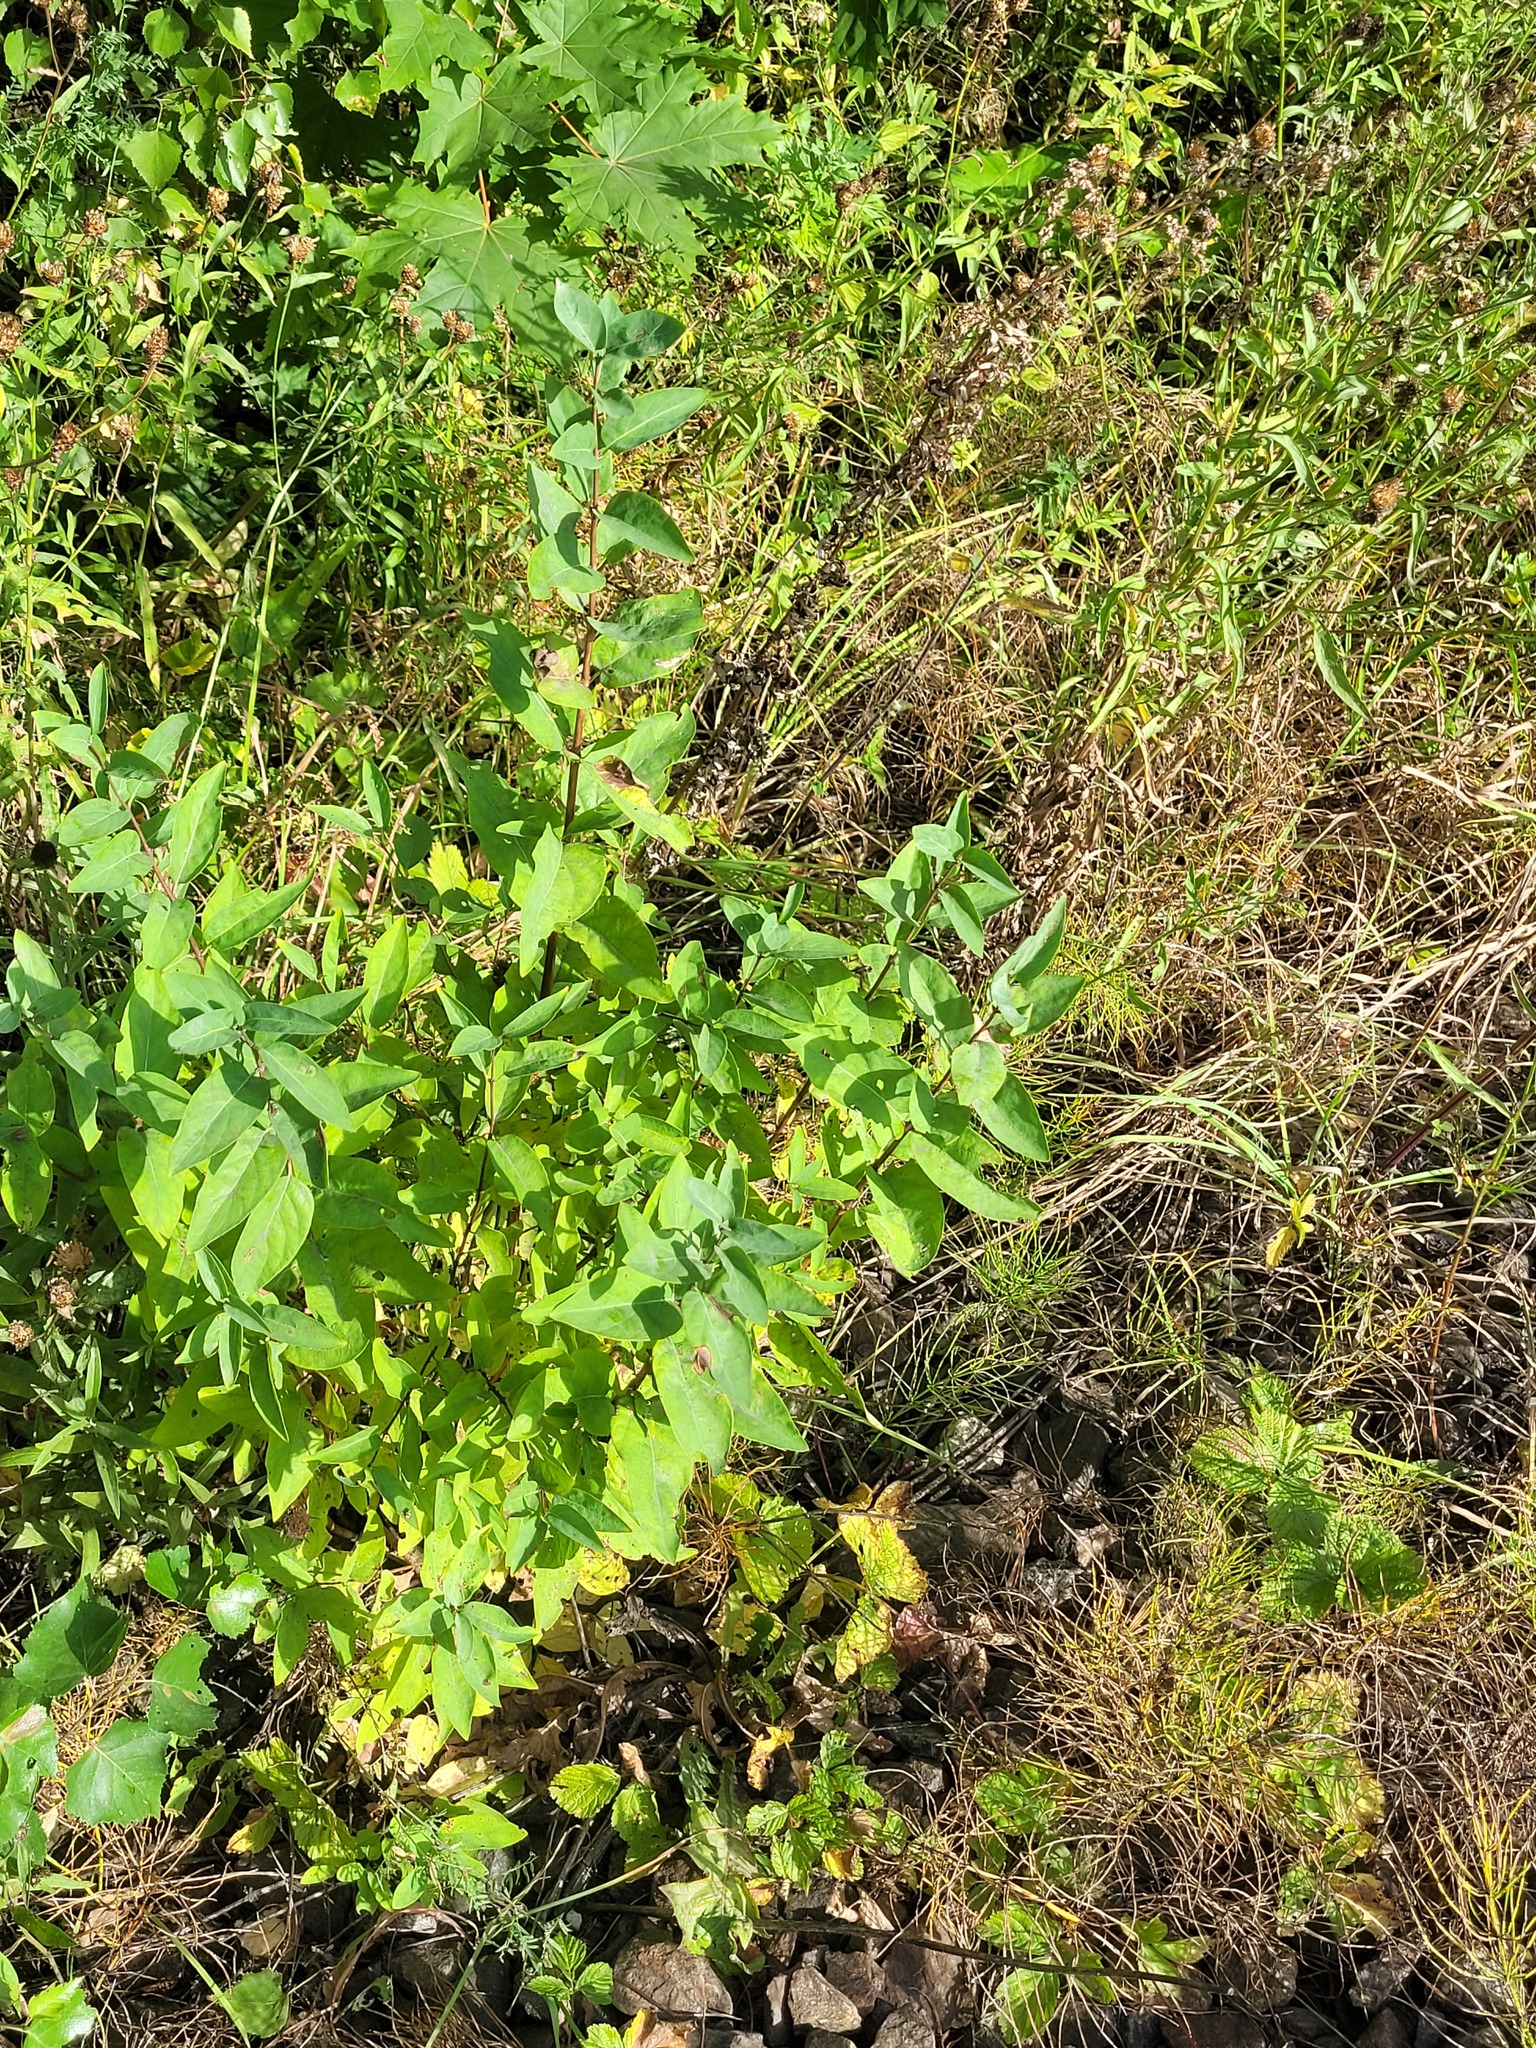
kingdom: Plantae
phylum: Tracheophyta
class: Magnoliopsida
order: Dipsacales
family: Caprifoliaceae
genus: Lonicera
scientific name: Lonicera tatarica
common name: Tatarian honeysuckle
